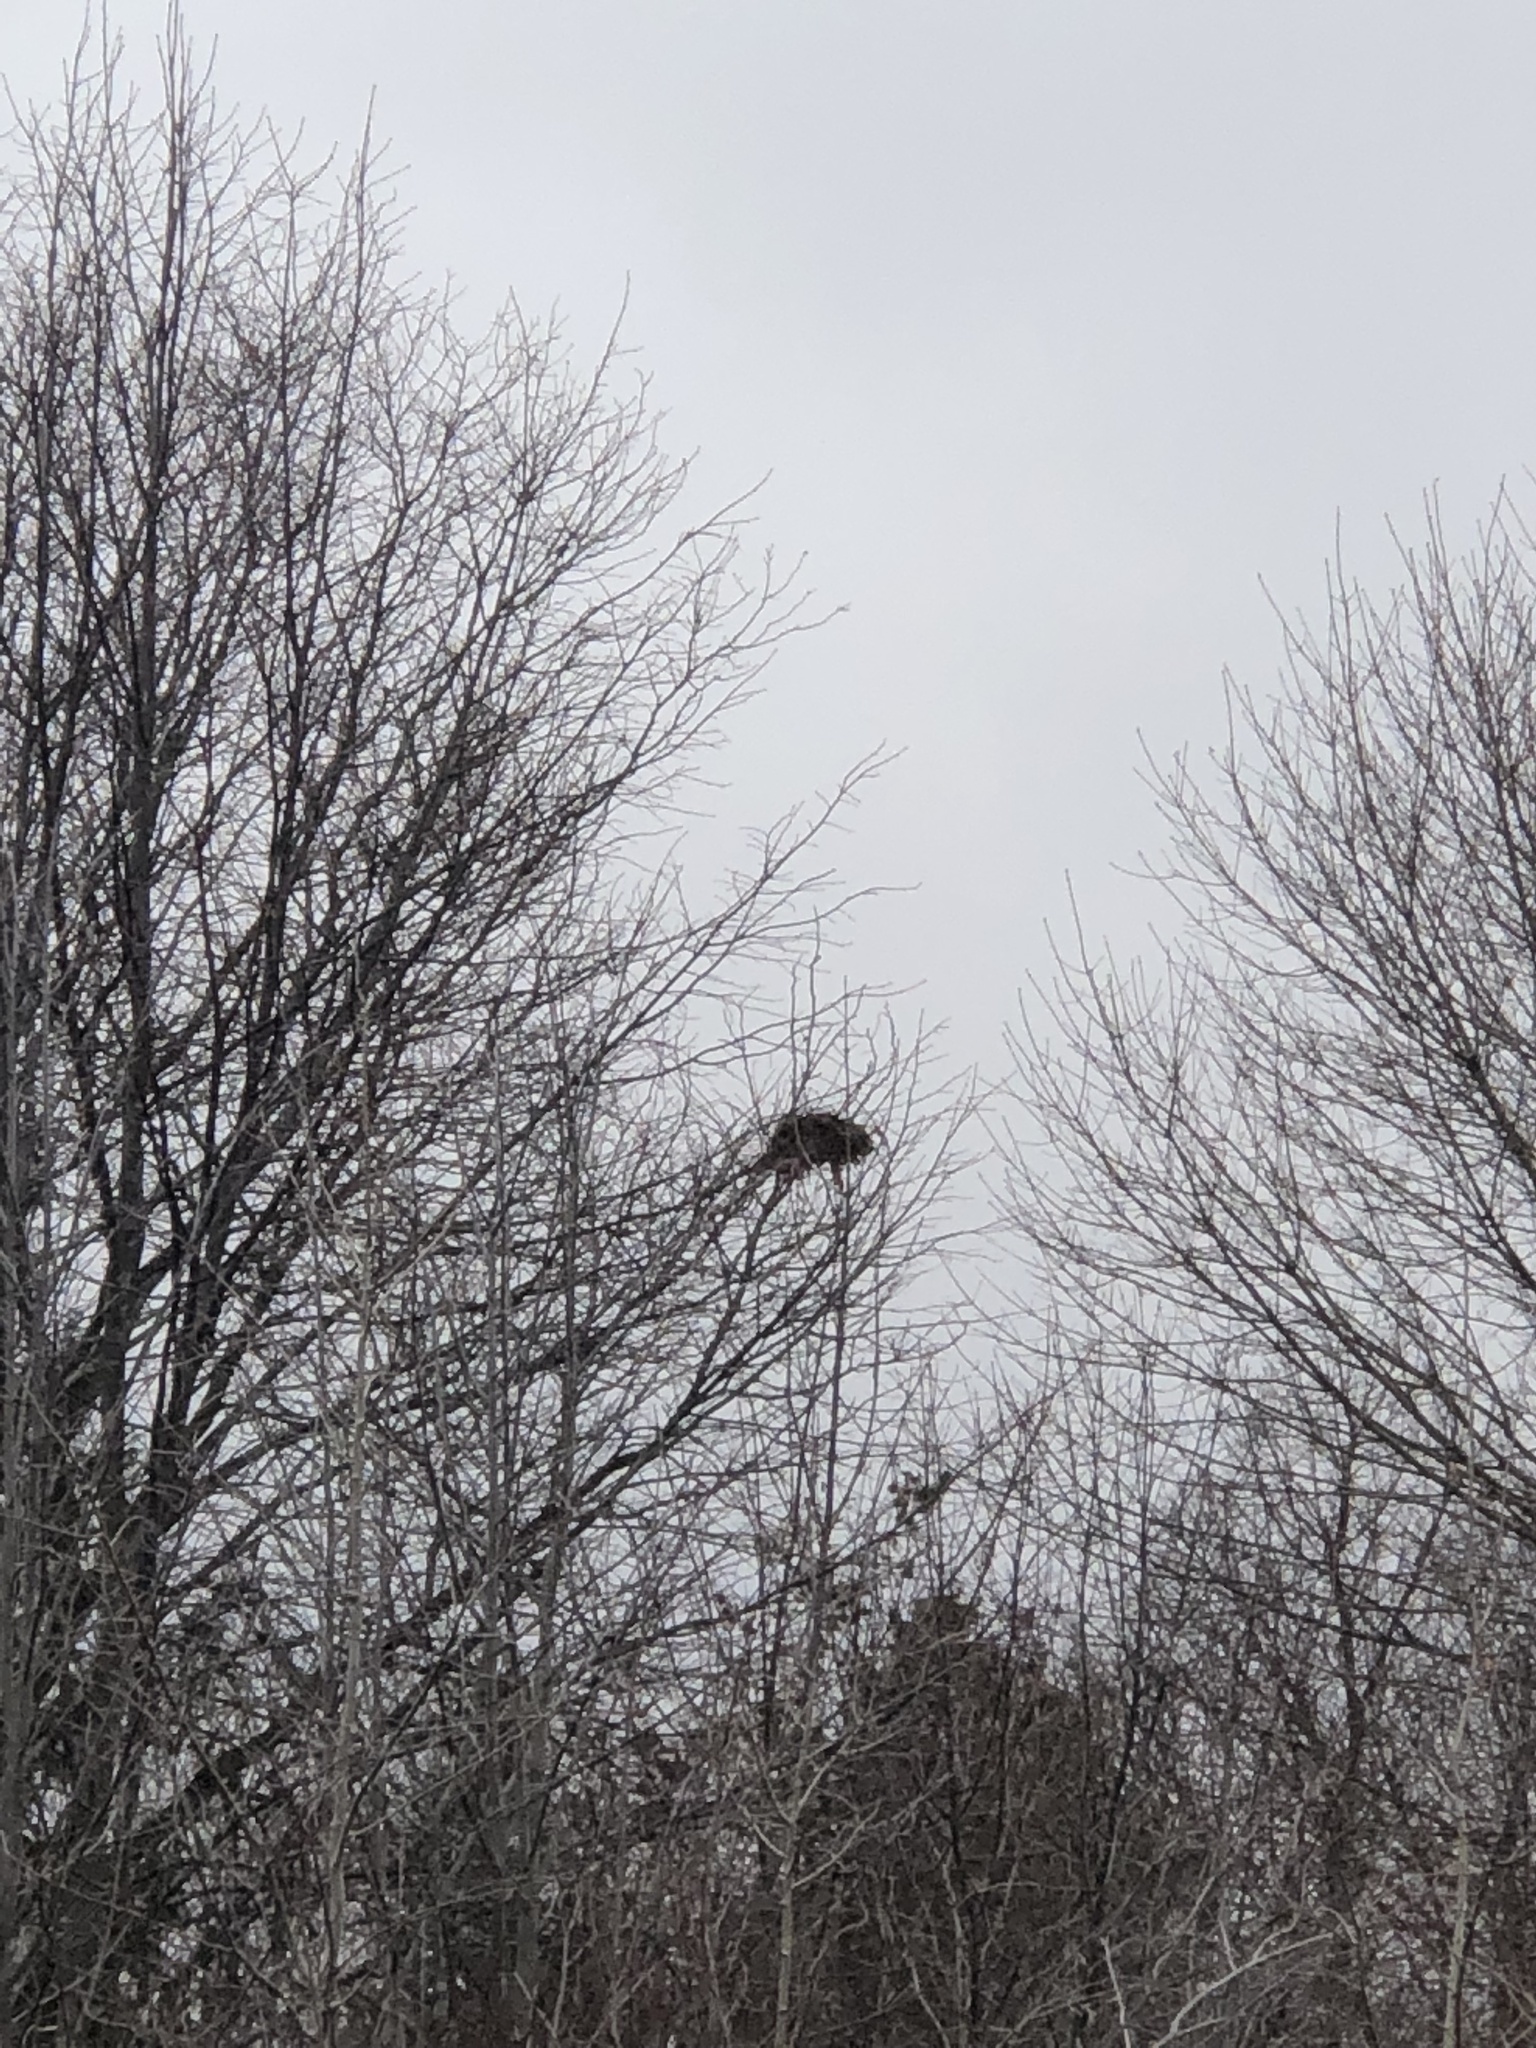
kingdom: Animalia
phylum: Chordata
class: Mammalia
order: Rodentia
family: Sciuridae
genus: Sciurus
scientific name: Sciurus carolinensis
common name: Eastern gray squirrel
